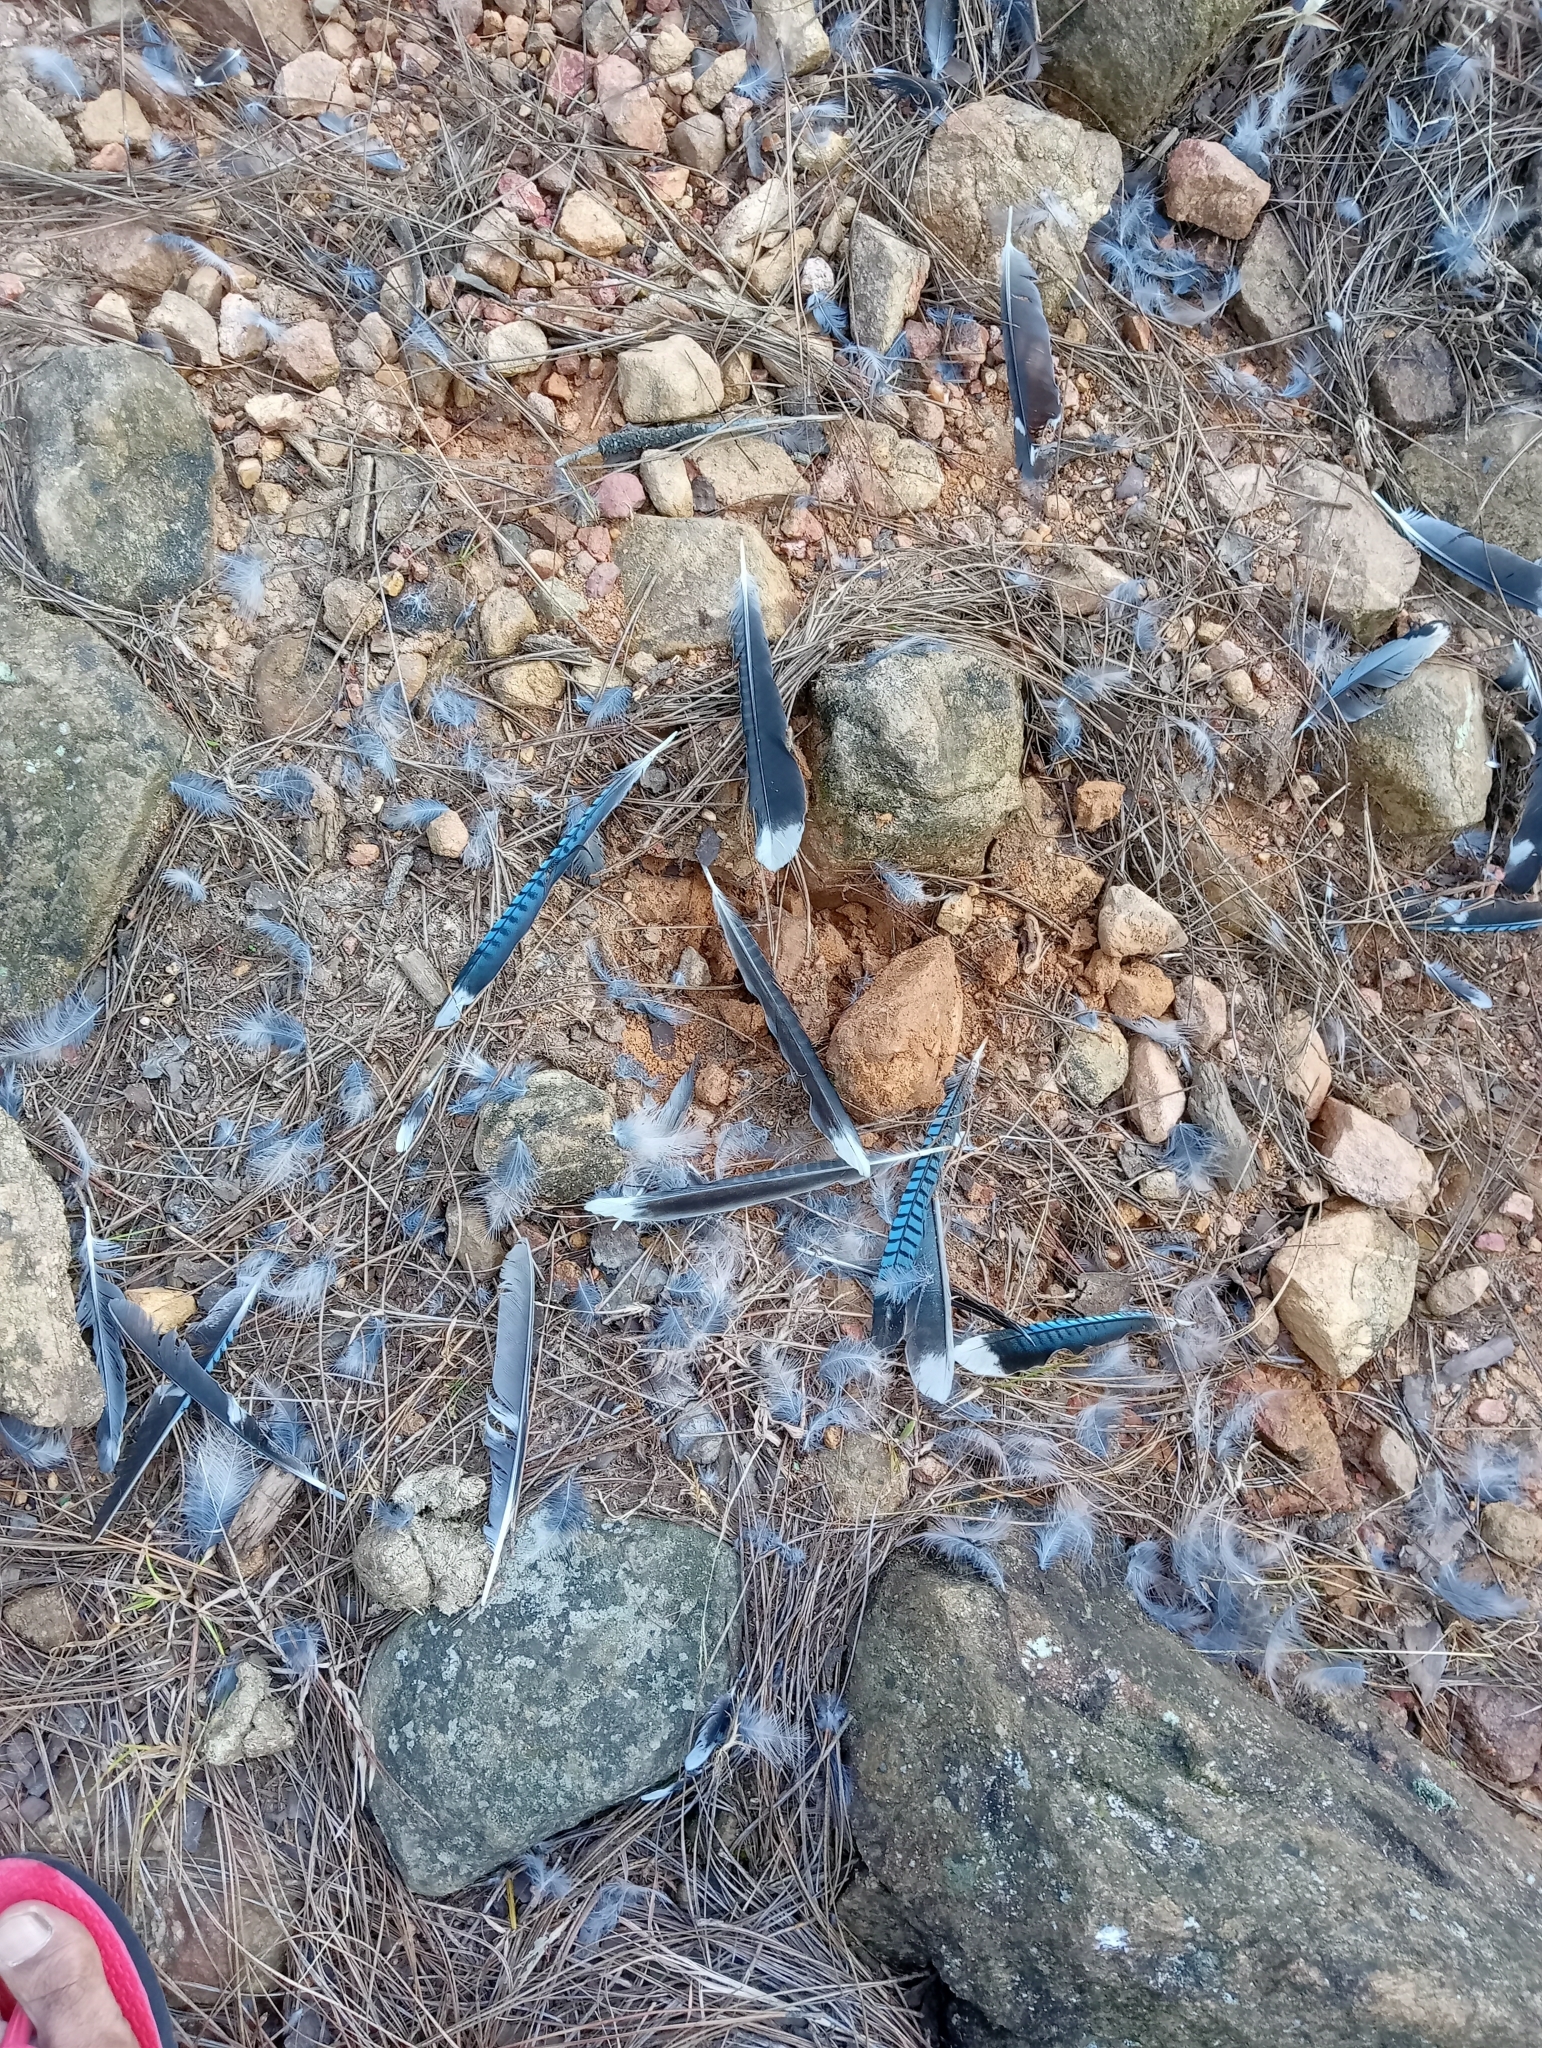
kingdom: Animalia
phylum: Chordata
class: Aves
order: Passeriformes
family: Corvidae
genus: Garrulus
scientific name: Garrulus lanceolatus
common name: Black-headed jay
